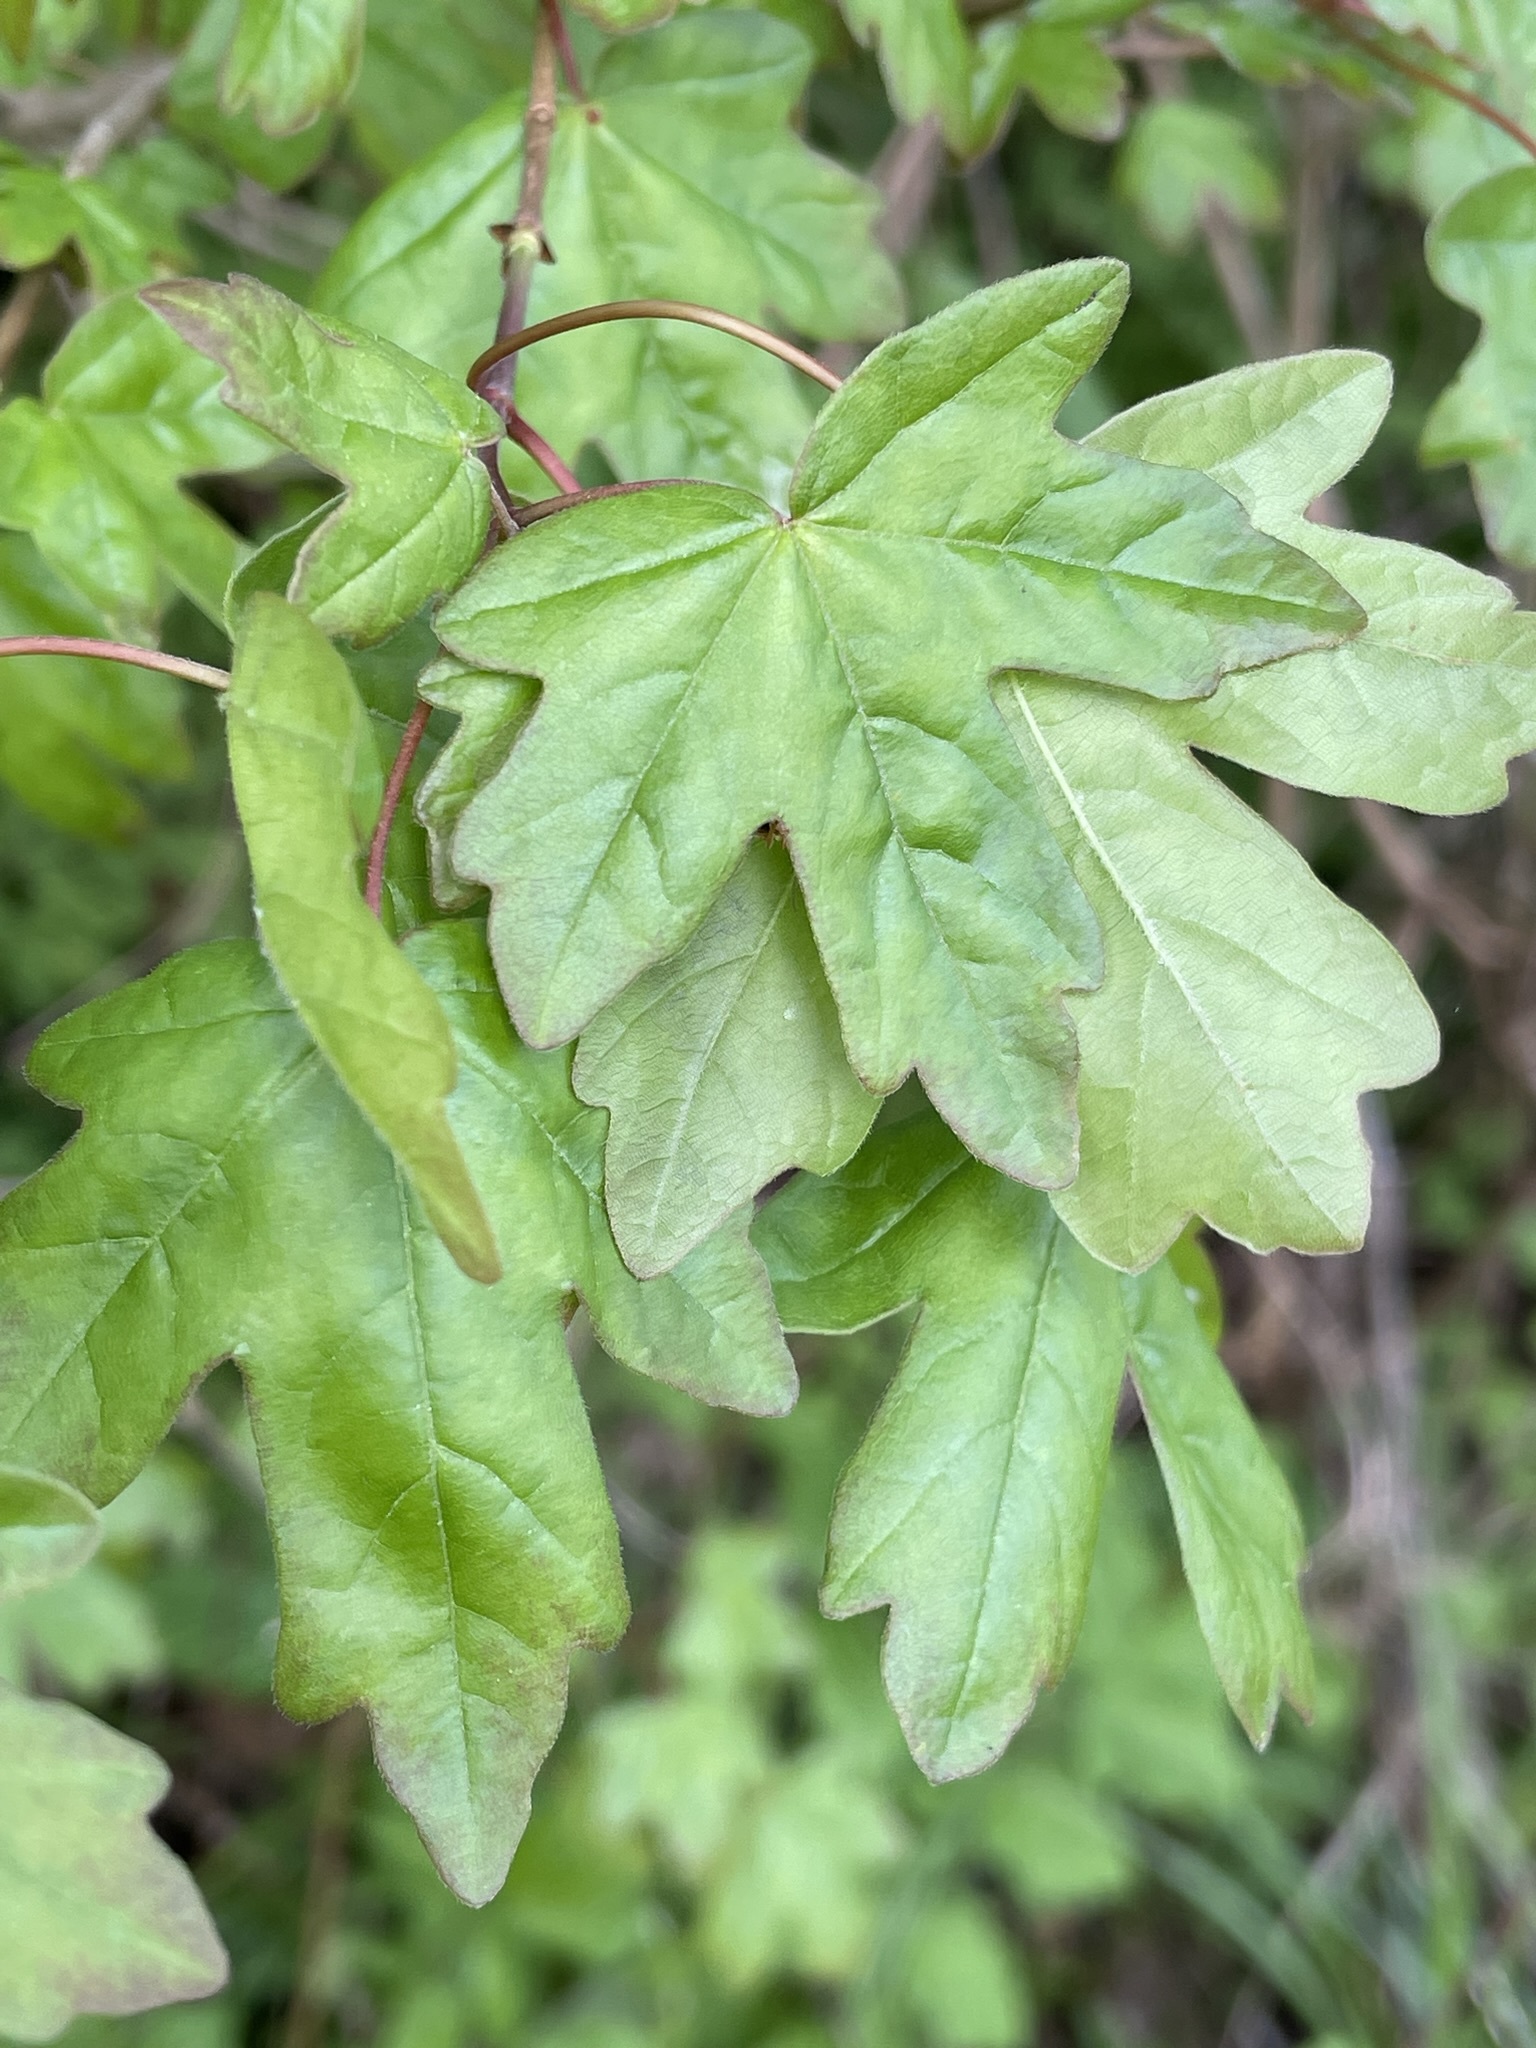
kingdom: Plantae
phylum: Tracheophyta
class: Magnoliopsida
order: Sapindales
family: Sapindaceae
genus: Acer
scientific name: Acer campestre
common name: Field maple
